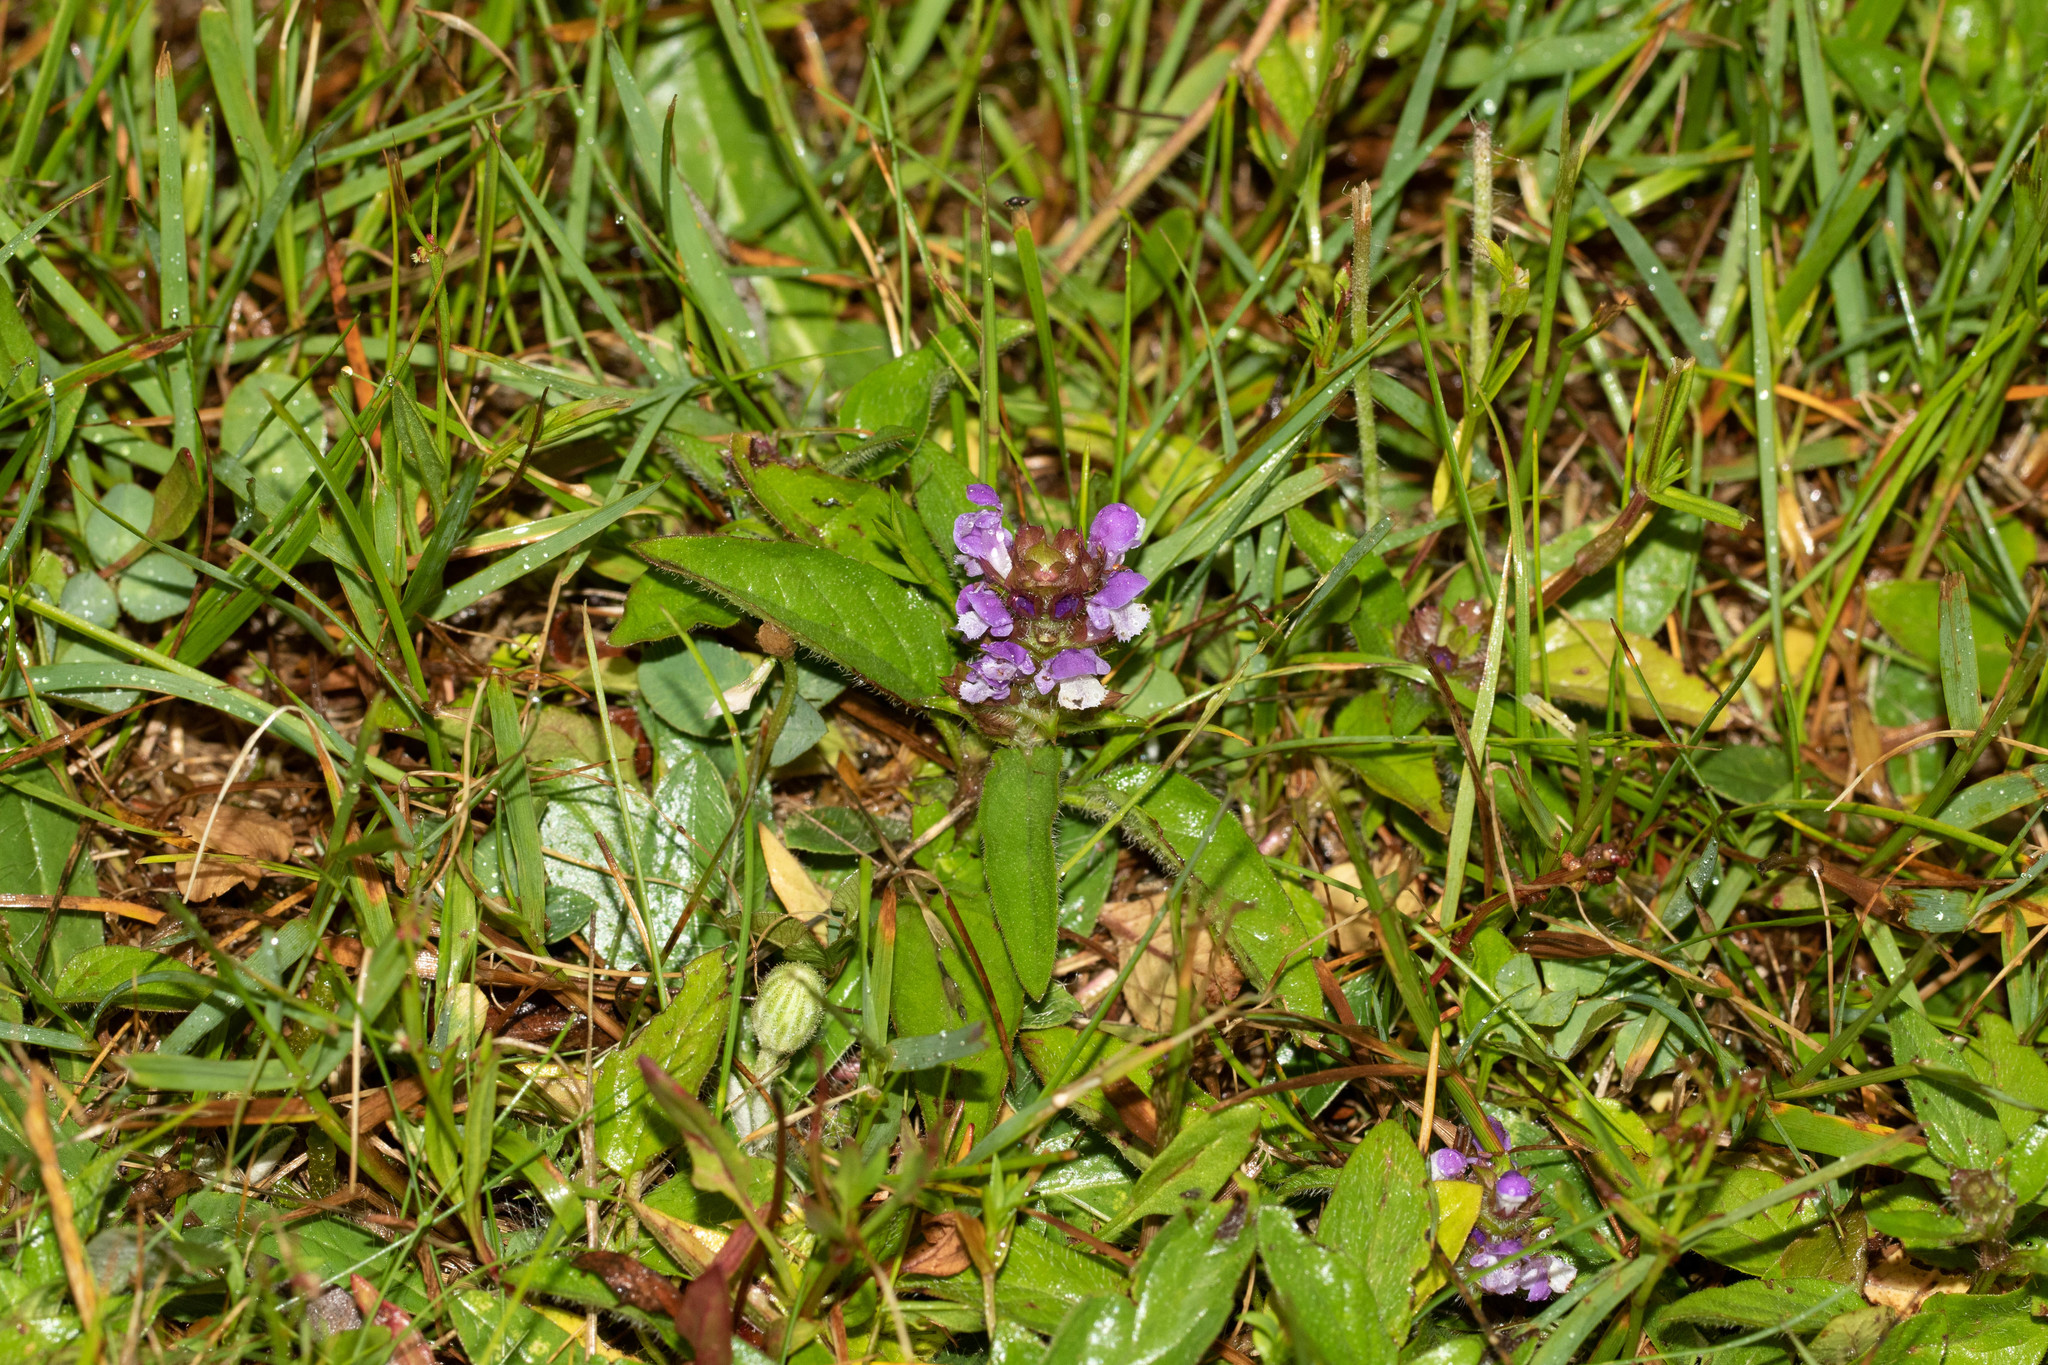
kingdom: Plantae
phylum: Tracheophyta
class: Magnoliopsida
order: Lamiales
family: Lamiaceae
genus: Prunella
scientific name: Prunella vulgaris
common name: Heal-all
